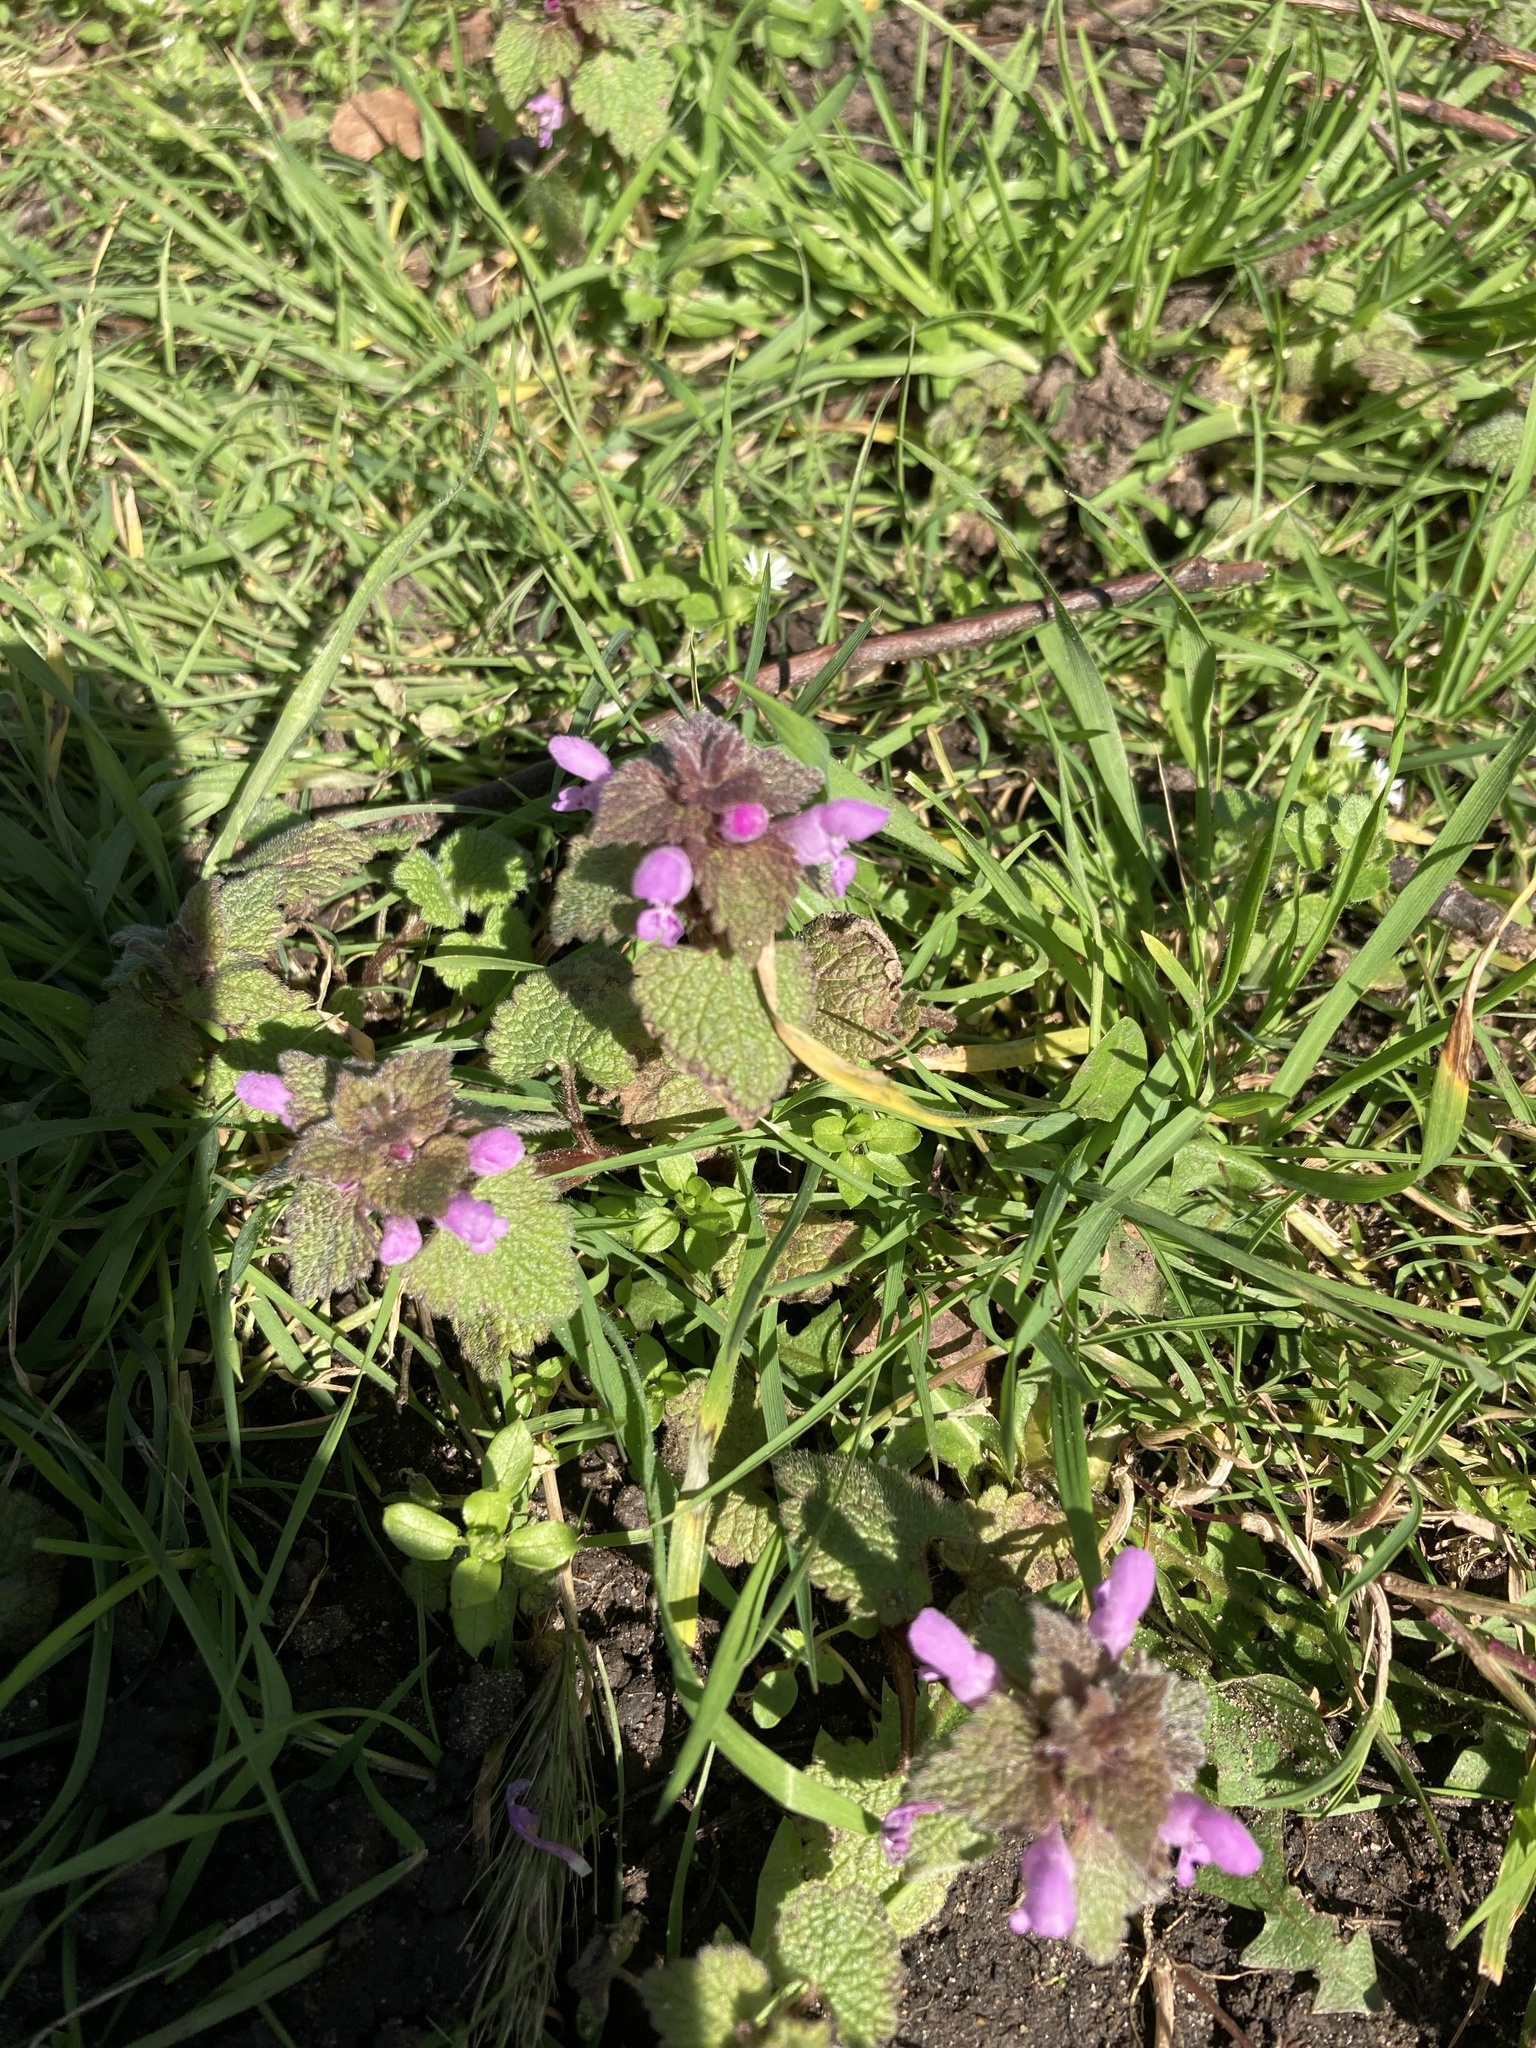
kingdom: Plantae
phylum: Tracheophyta
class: Magnoliopsida
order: Lamiales
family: Lamiaceae
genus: Lamium
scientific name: Lamium purpureum
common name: Red dead-nettle
